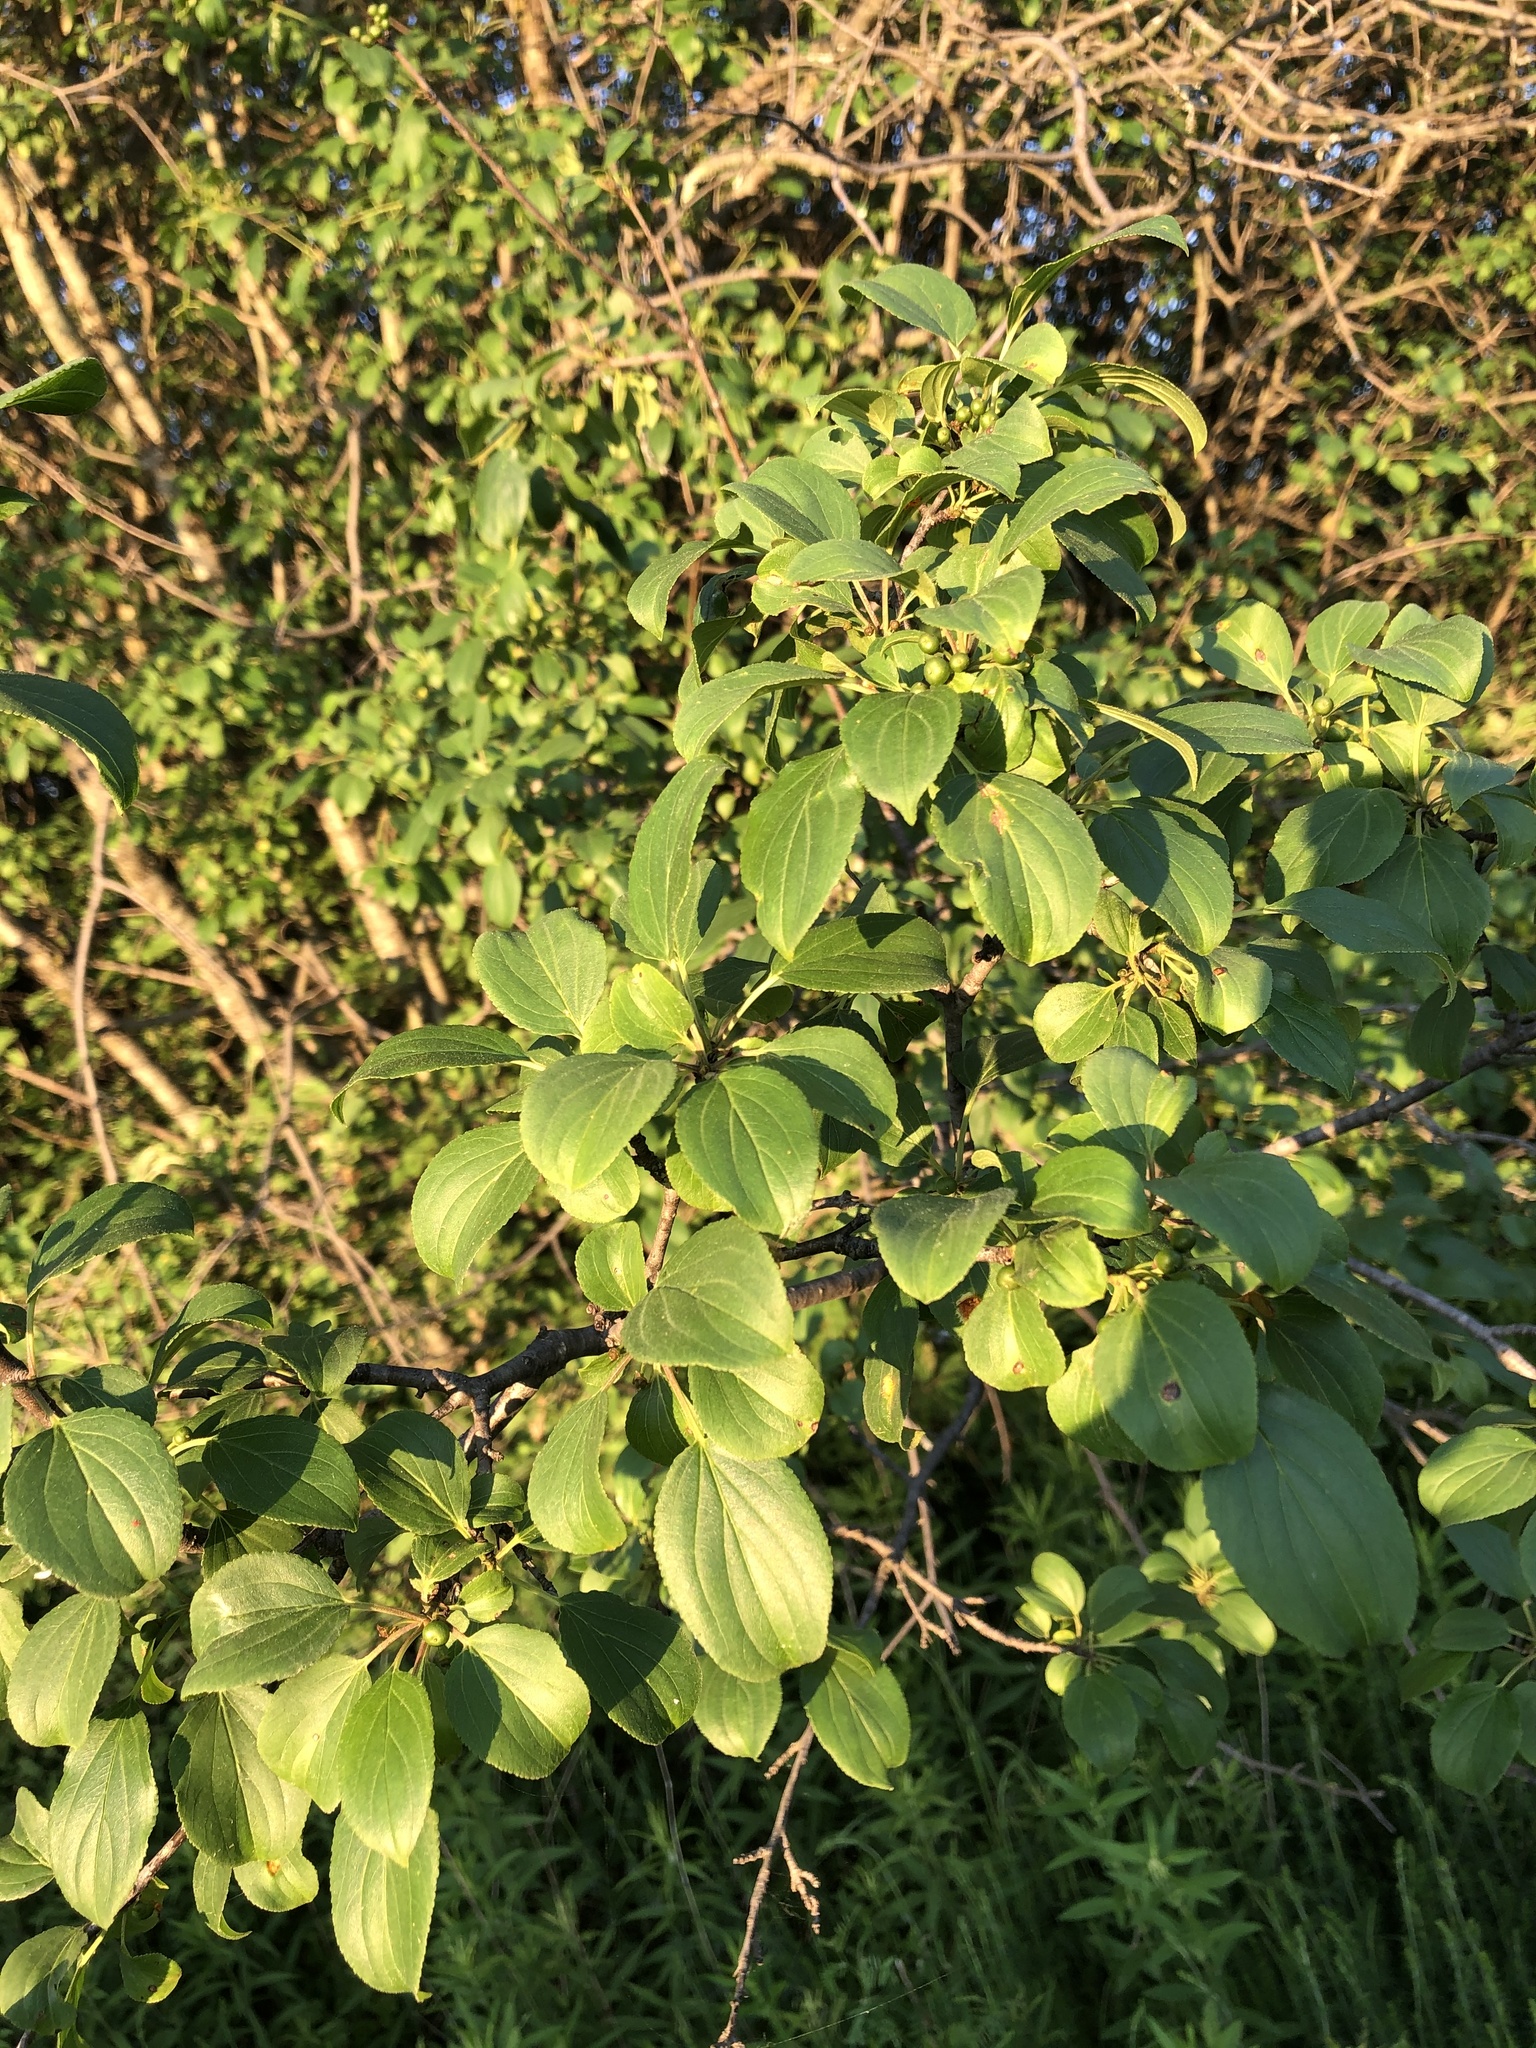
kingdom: Plantae
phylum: Tracheophyta
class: Magnoliopsida
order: Rosales
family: Rhamnaceae
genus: Rhamnus
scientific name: Rhamnus cathartica
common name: Common buckthorn
